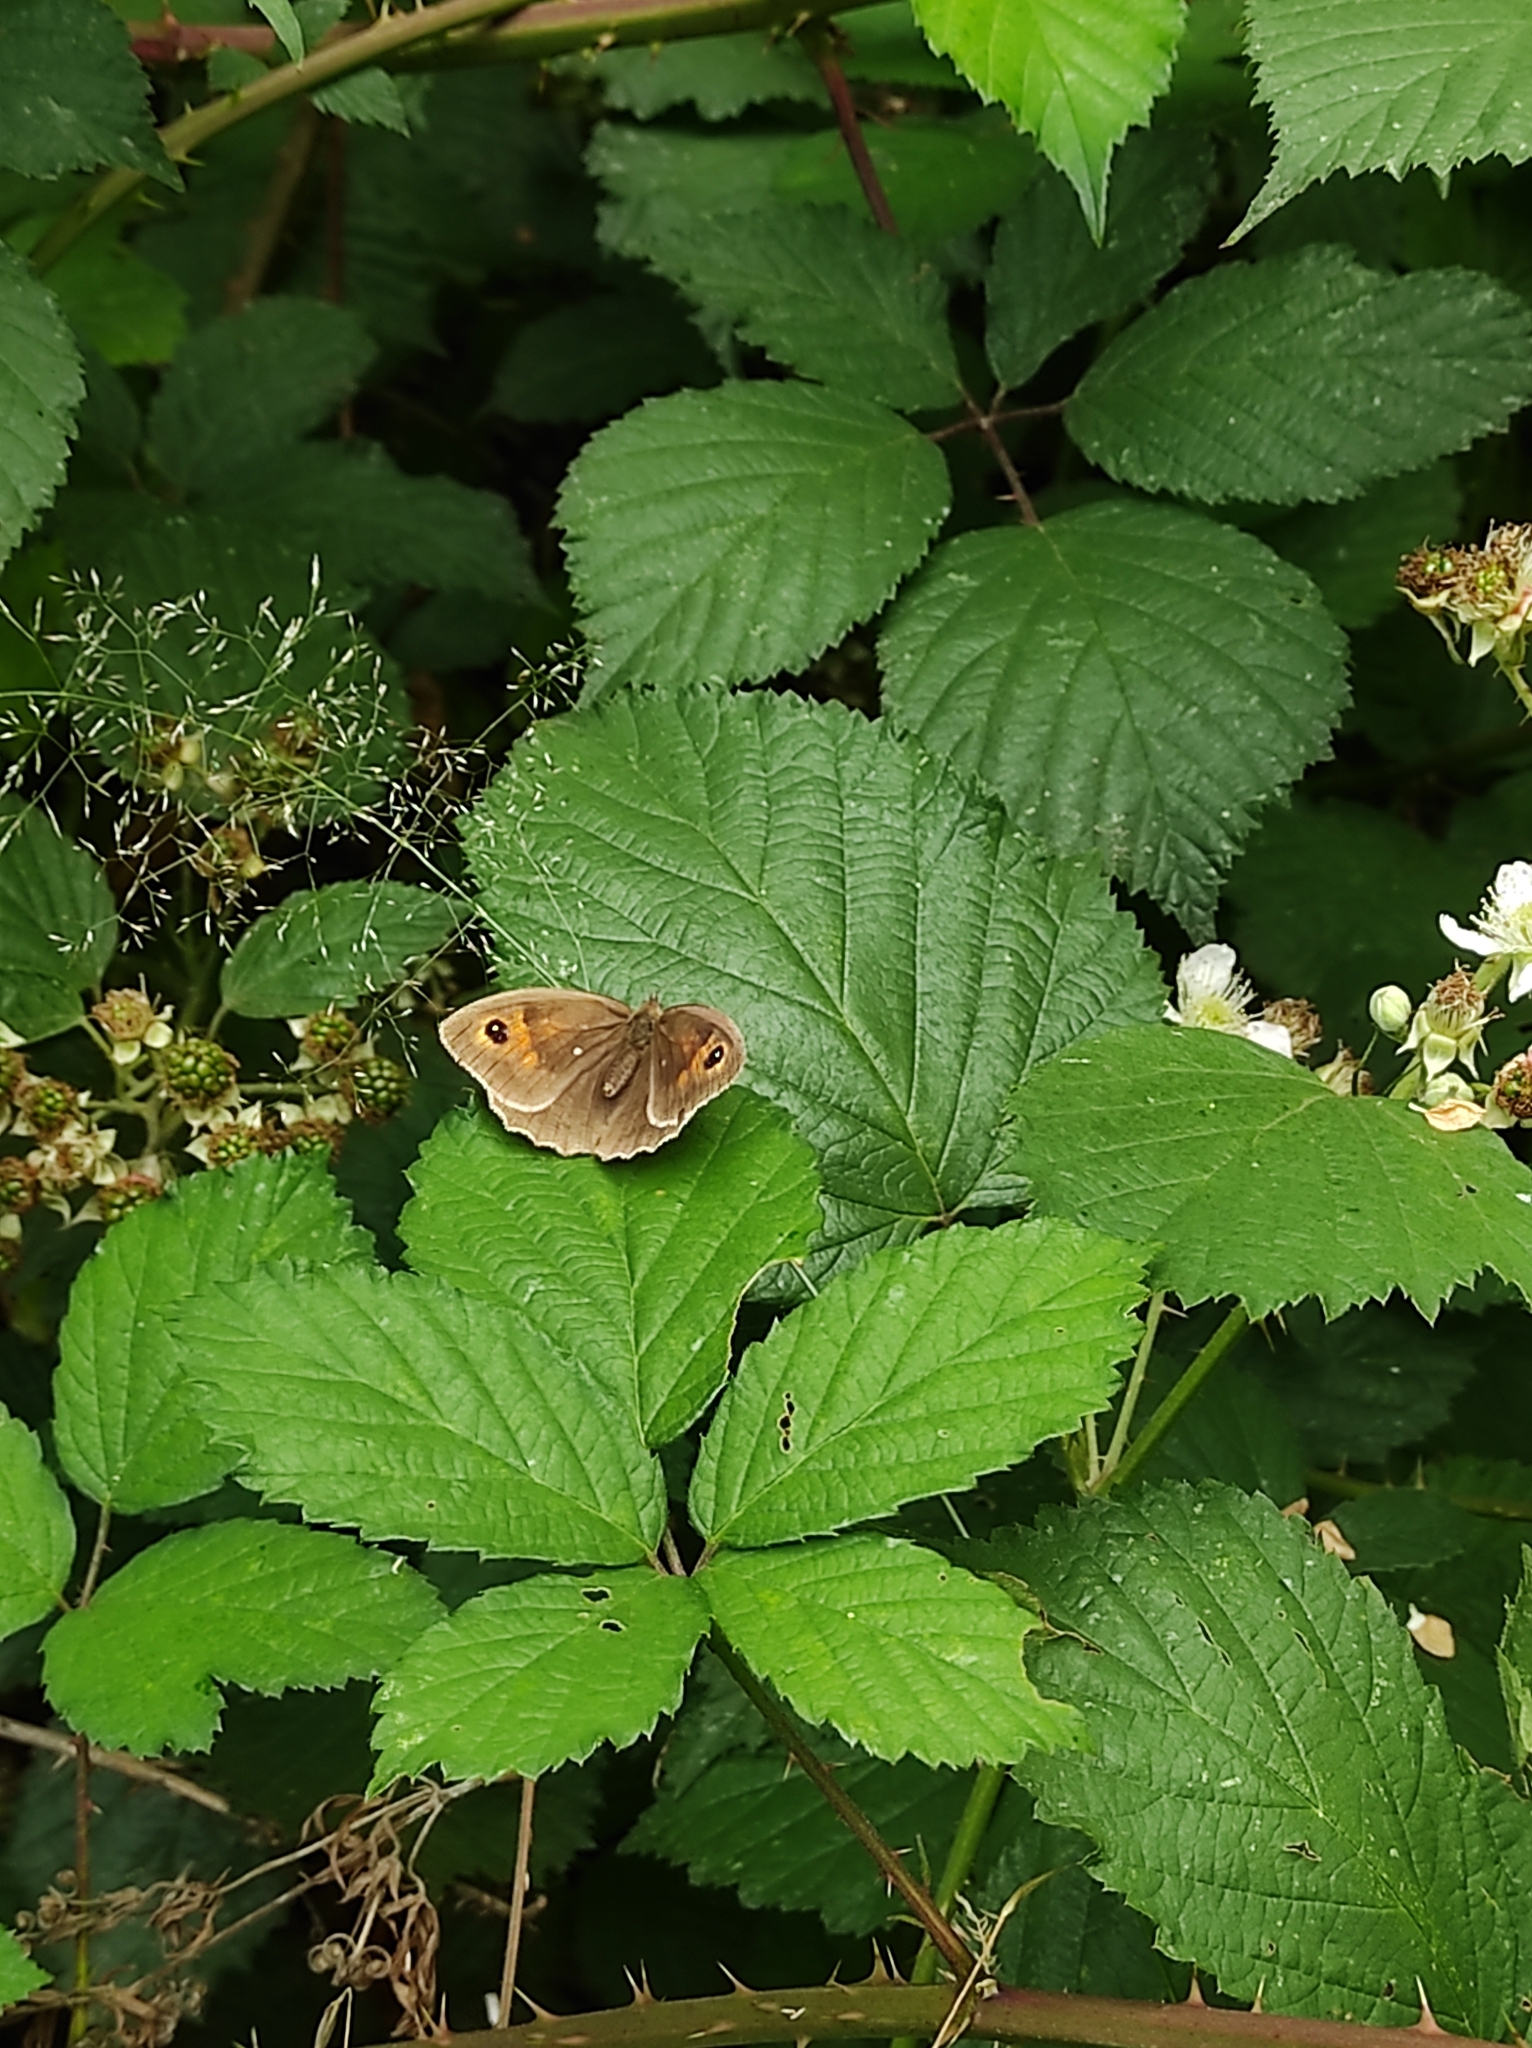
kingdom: Animalia
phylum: Arthropoda
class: Insecta
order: Lepidoptera
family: Nymphalidae
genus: Maniola
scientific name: Maniola jurtina
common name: Meadow brown
